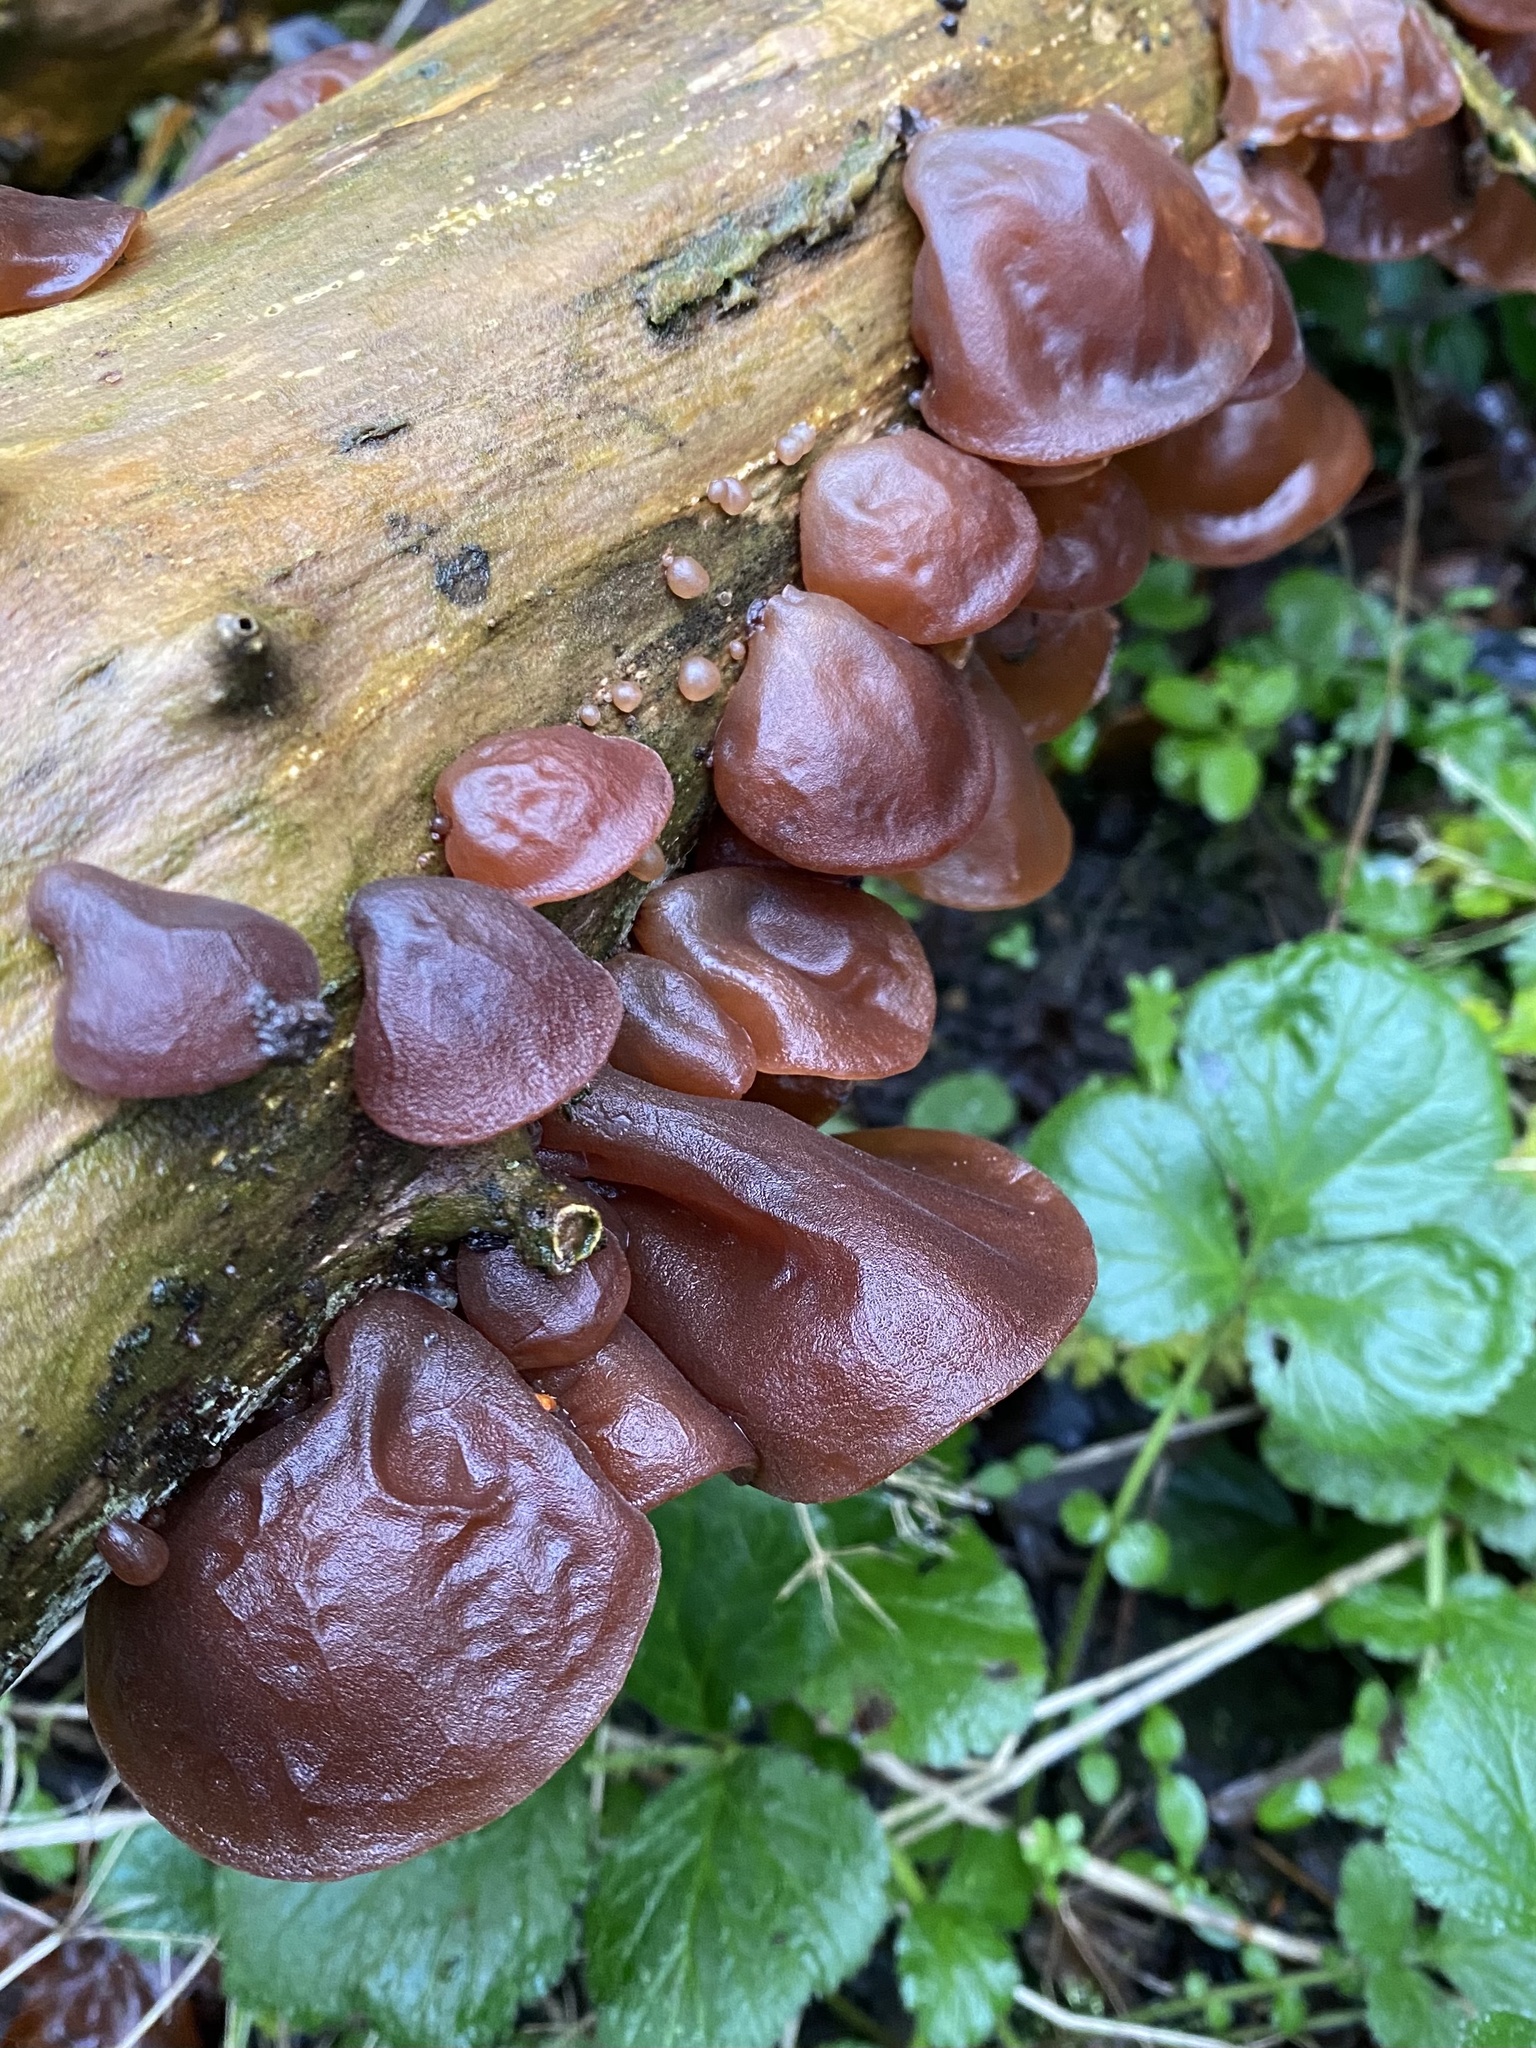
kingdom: Fungi
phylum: Basidiomycota
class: Agaricomycetes
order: Auriculariales
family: Auriculariaceae
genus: Auricularia
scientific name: Auricularia auricula-judae
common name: Jelly ear
